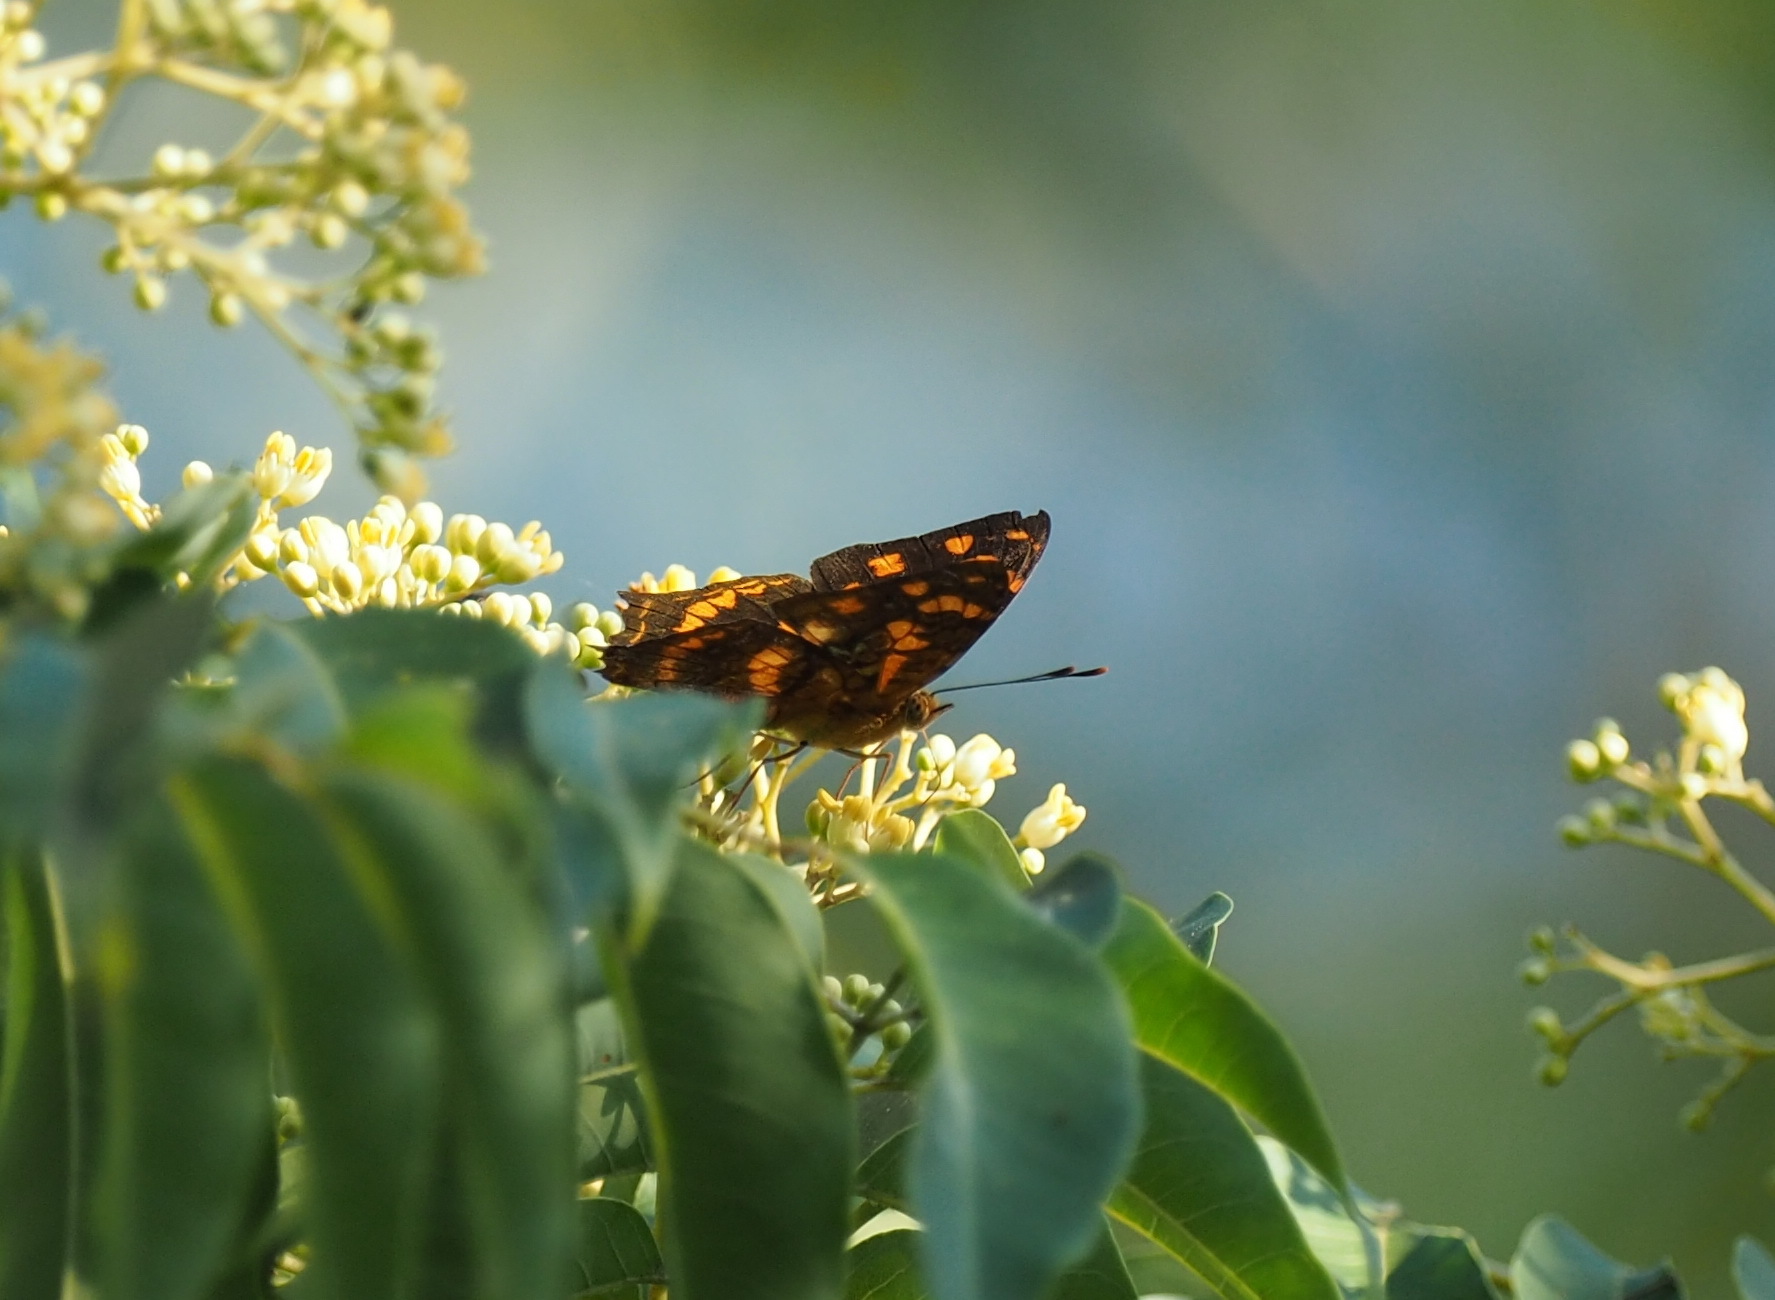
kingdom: Animalia
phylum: Arthropoda
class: Insecta
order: Lepidoptera
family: Nymphalidae
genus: Symbrenthia
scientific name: Symbrenthia hypselis
